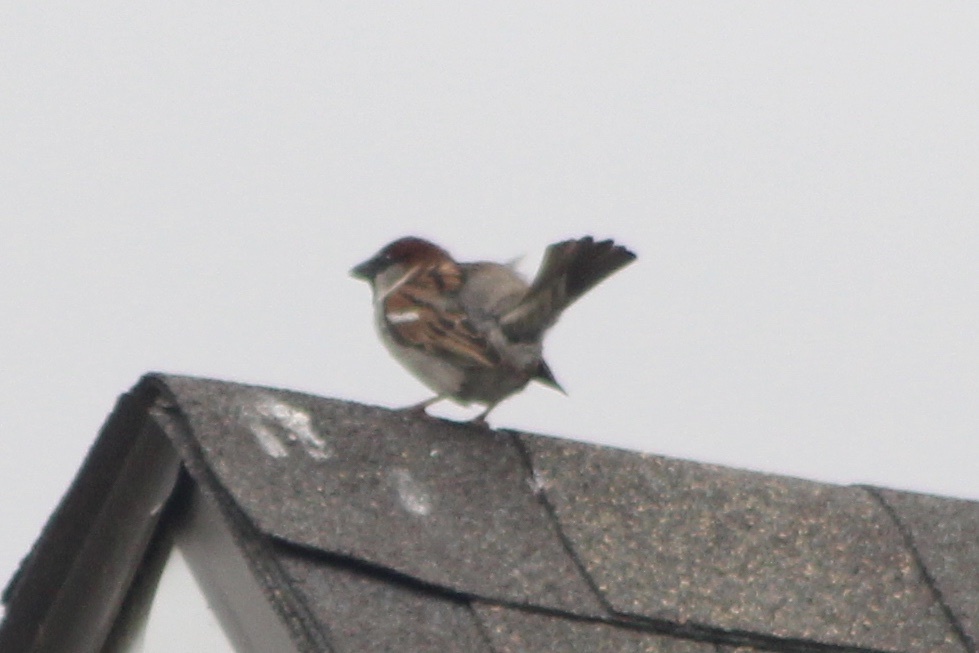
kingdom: Animalia
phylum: Chordata
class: Aves
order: Passeriformes
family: Passeridae
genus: Passer
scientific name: Passer domesticus
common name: House sparrow
